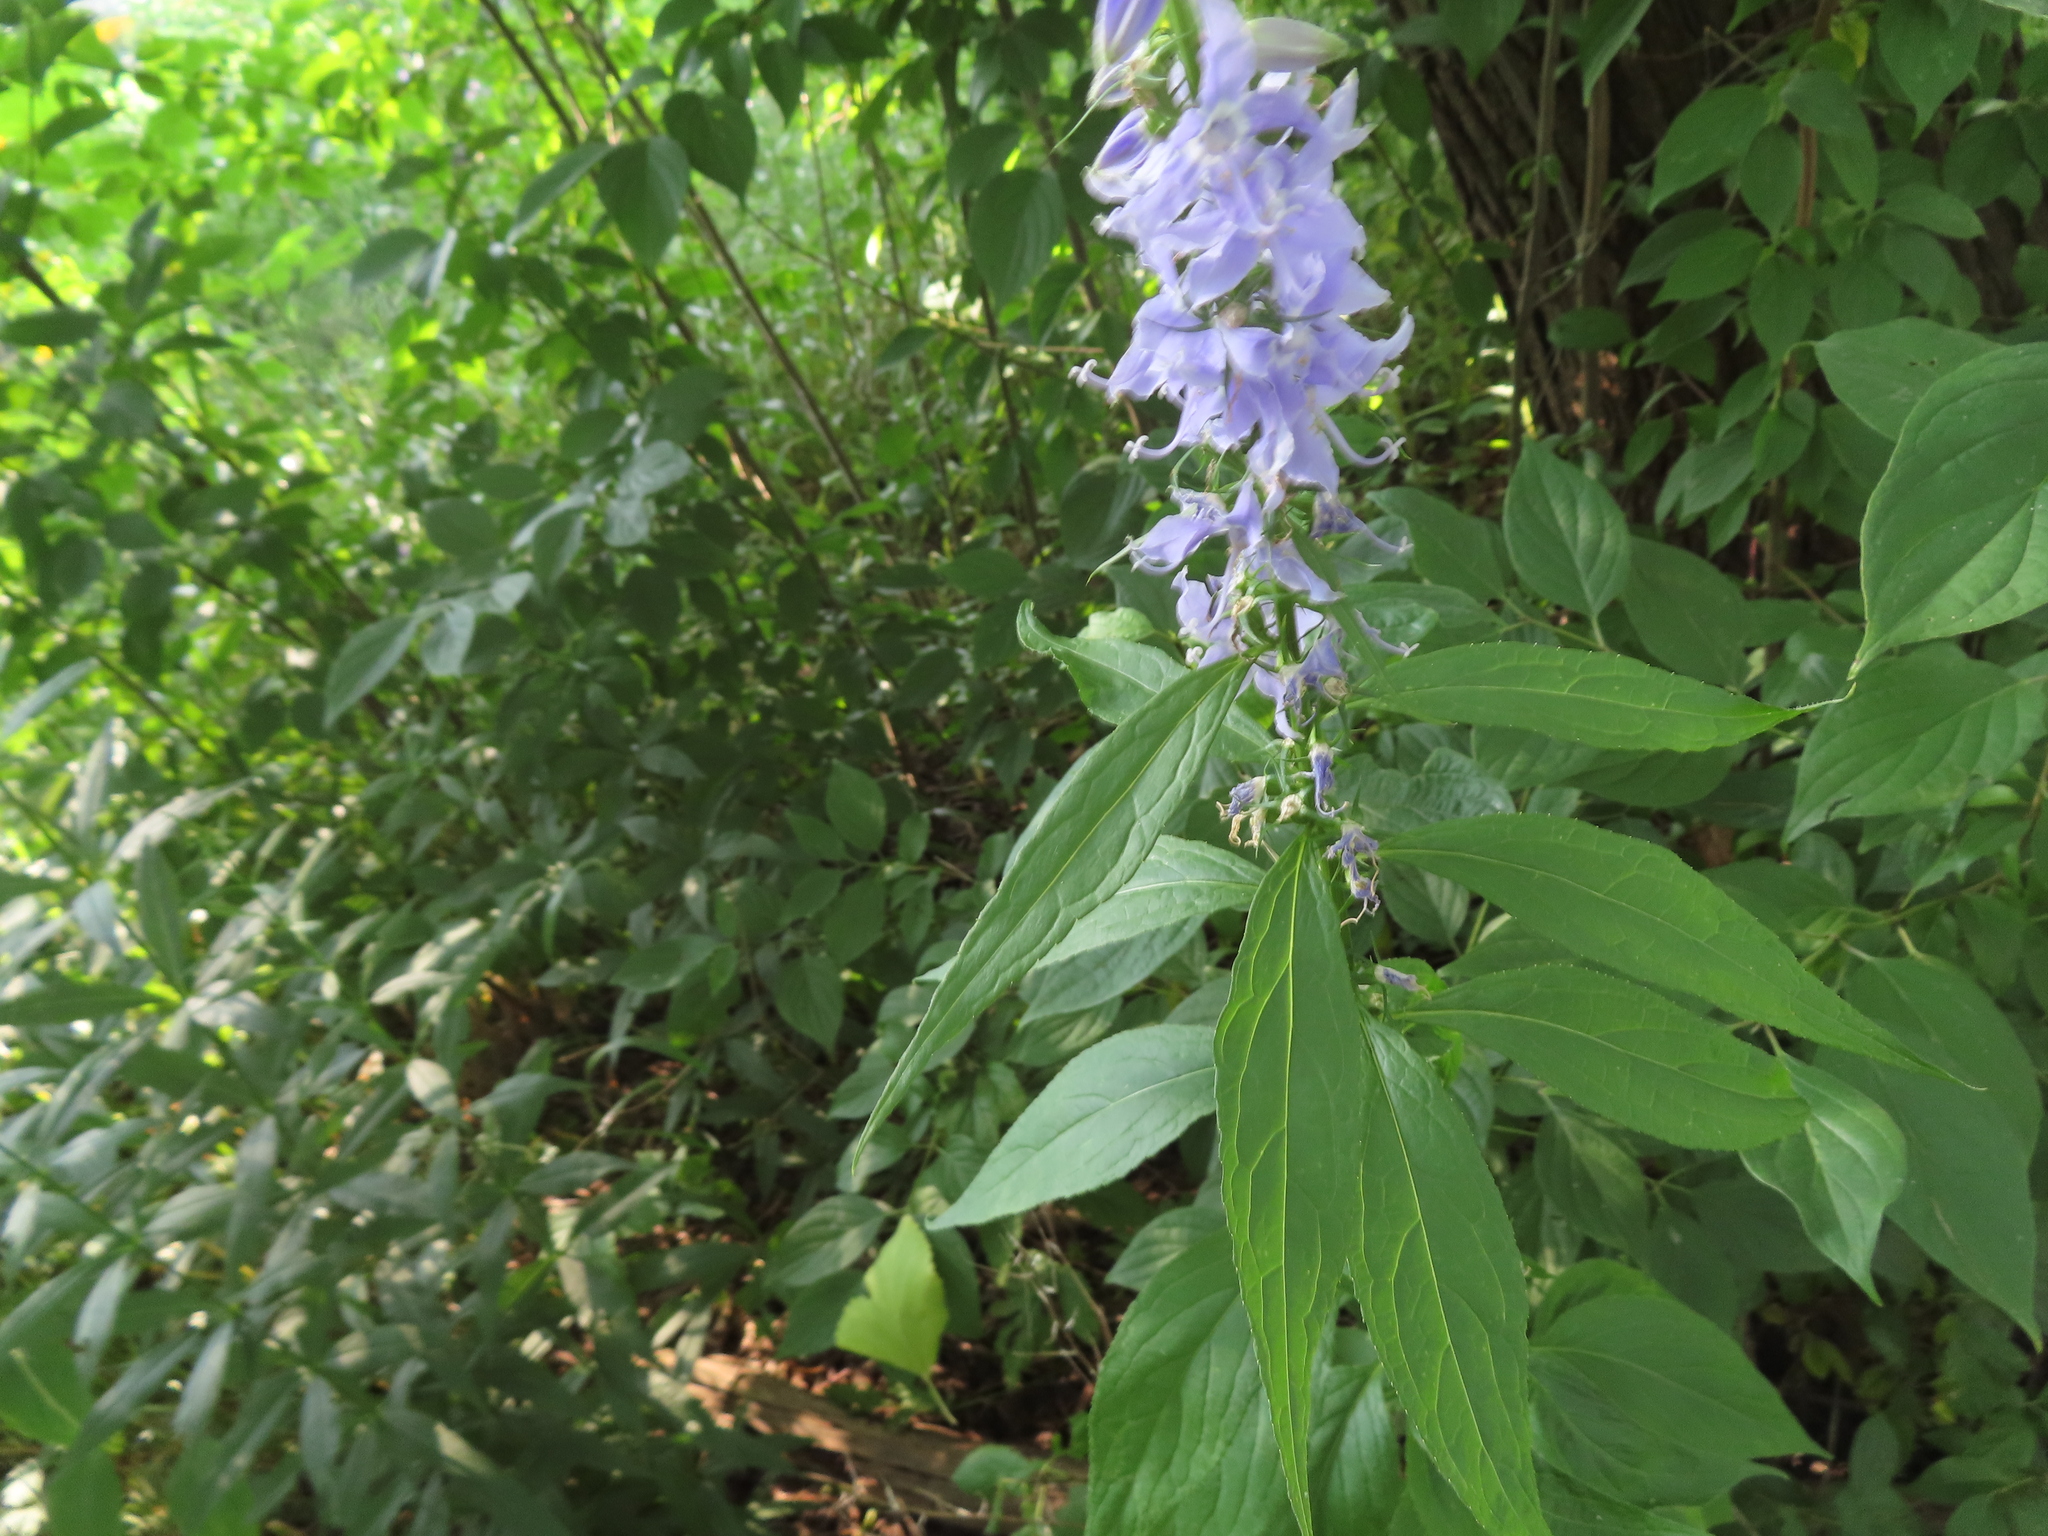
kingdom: Plantae
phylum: Tracheophyta
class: Magnoliopsida
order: Asterales
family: Campanulaceae
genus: Campanulastrum
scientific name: Campanulastrum americanum
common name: American bellflower
